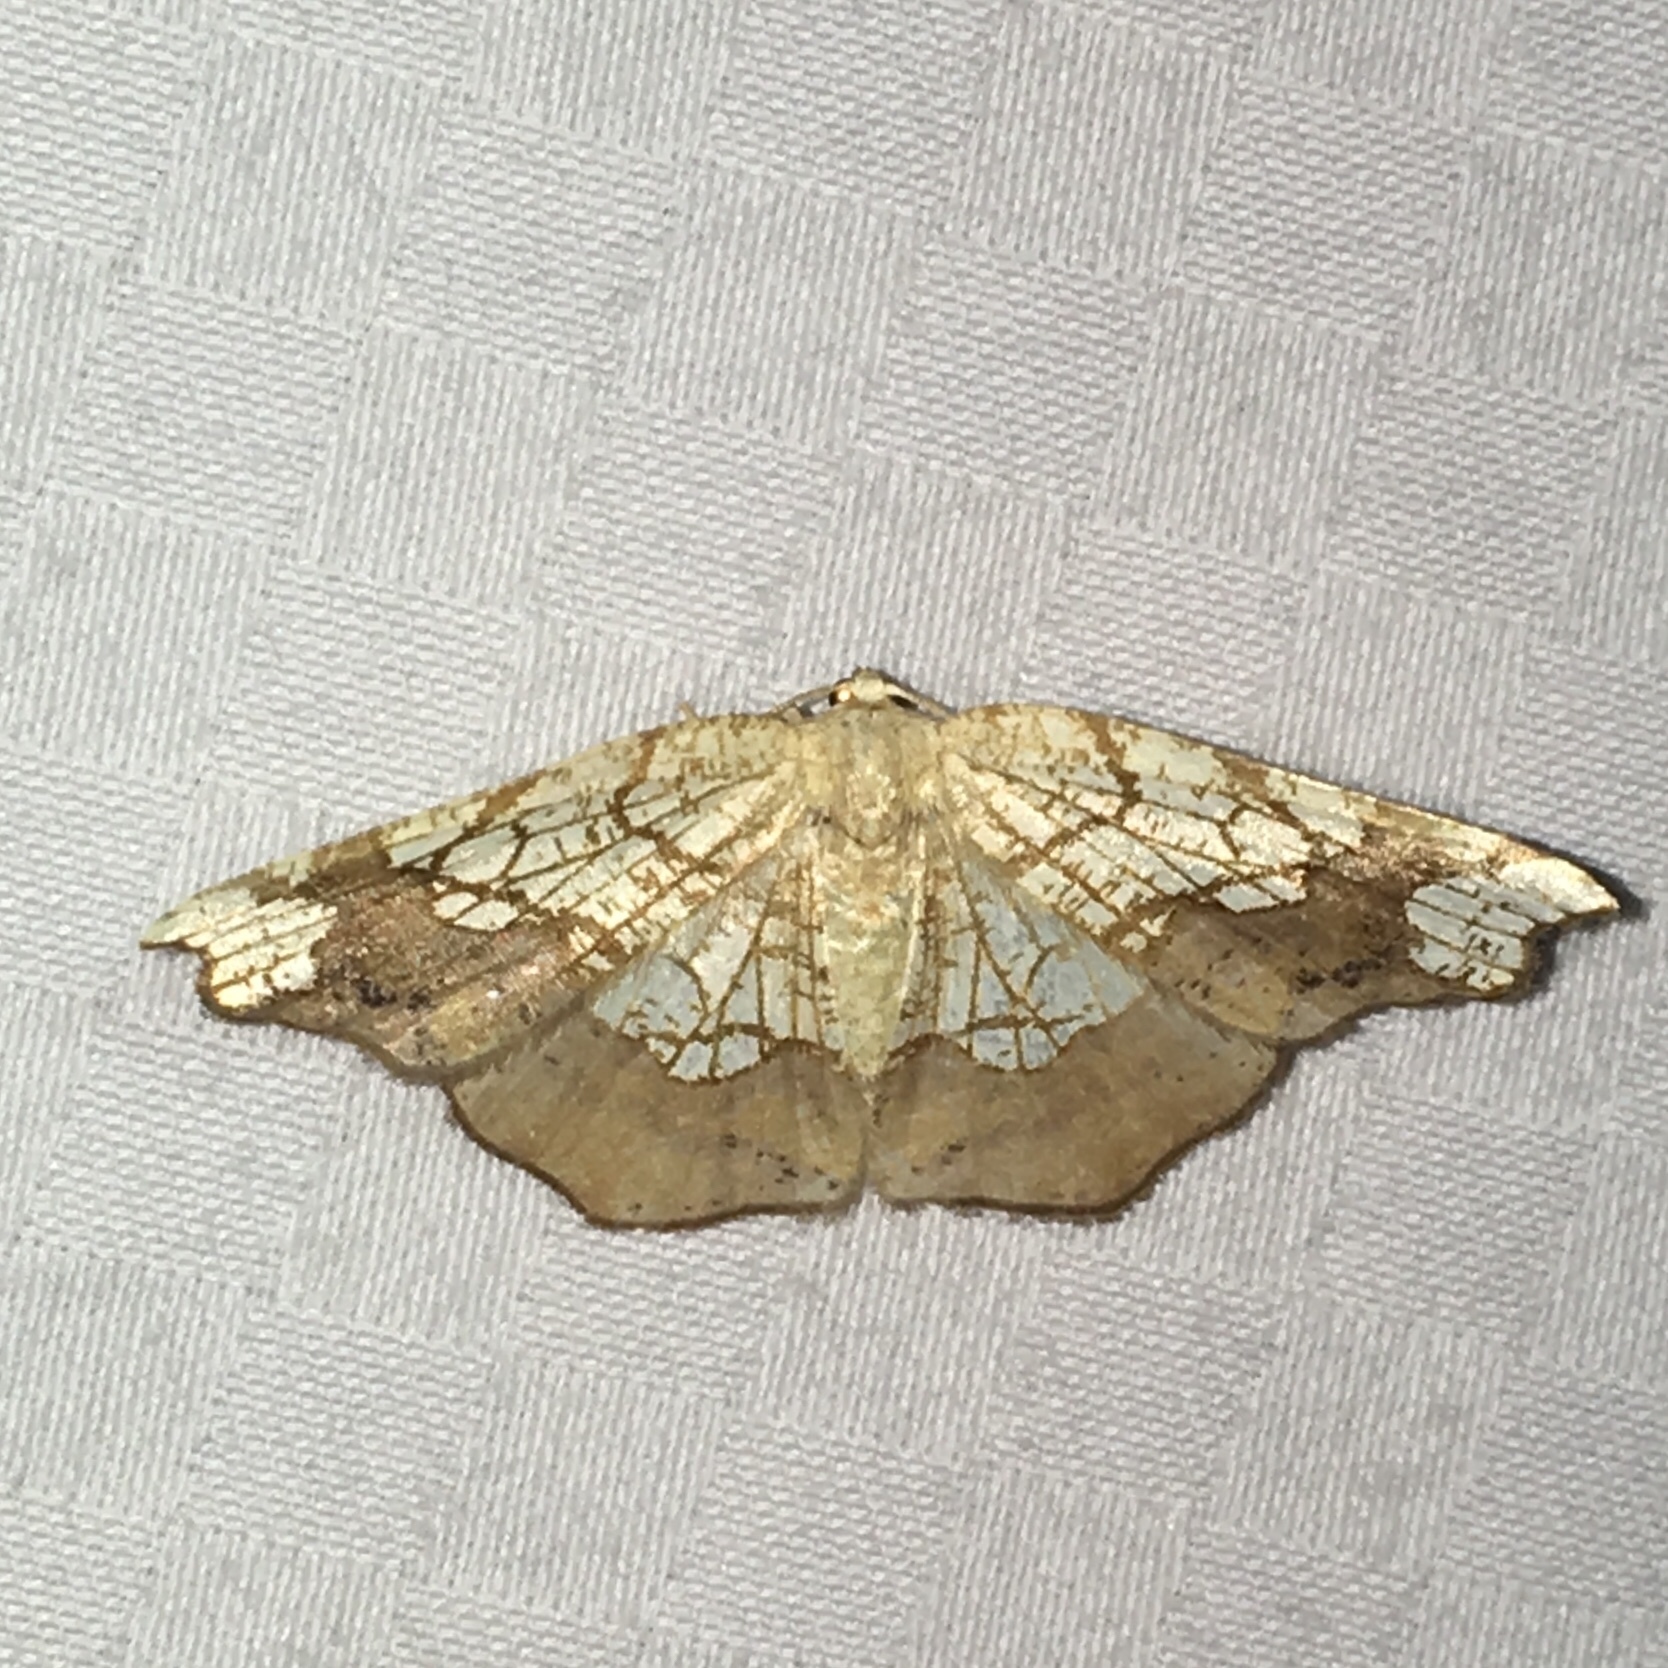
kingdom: Animalia
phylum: Arthropoda
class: Insecta
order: Lepidoptera
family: Geometridae
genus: Nematocampa
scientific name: Nematocampa resistaria
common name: Horned spanworm moth
